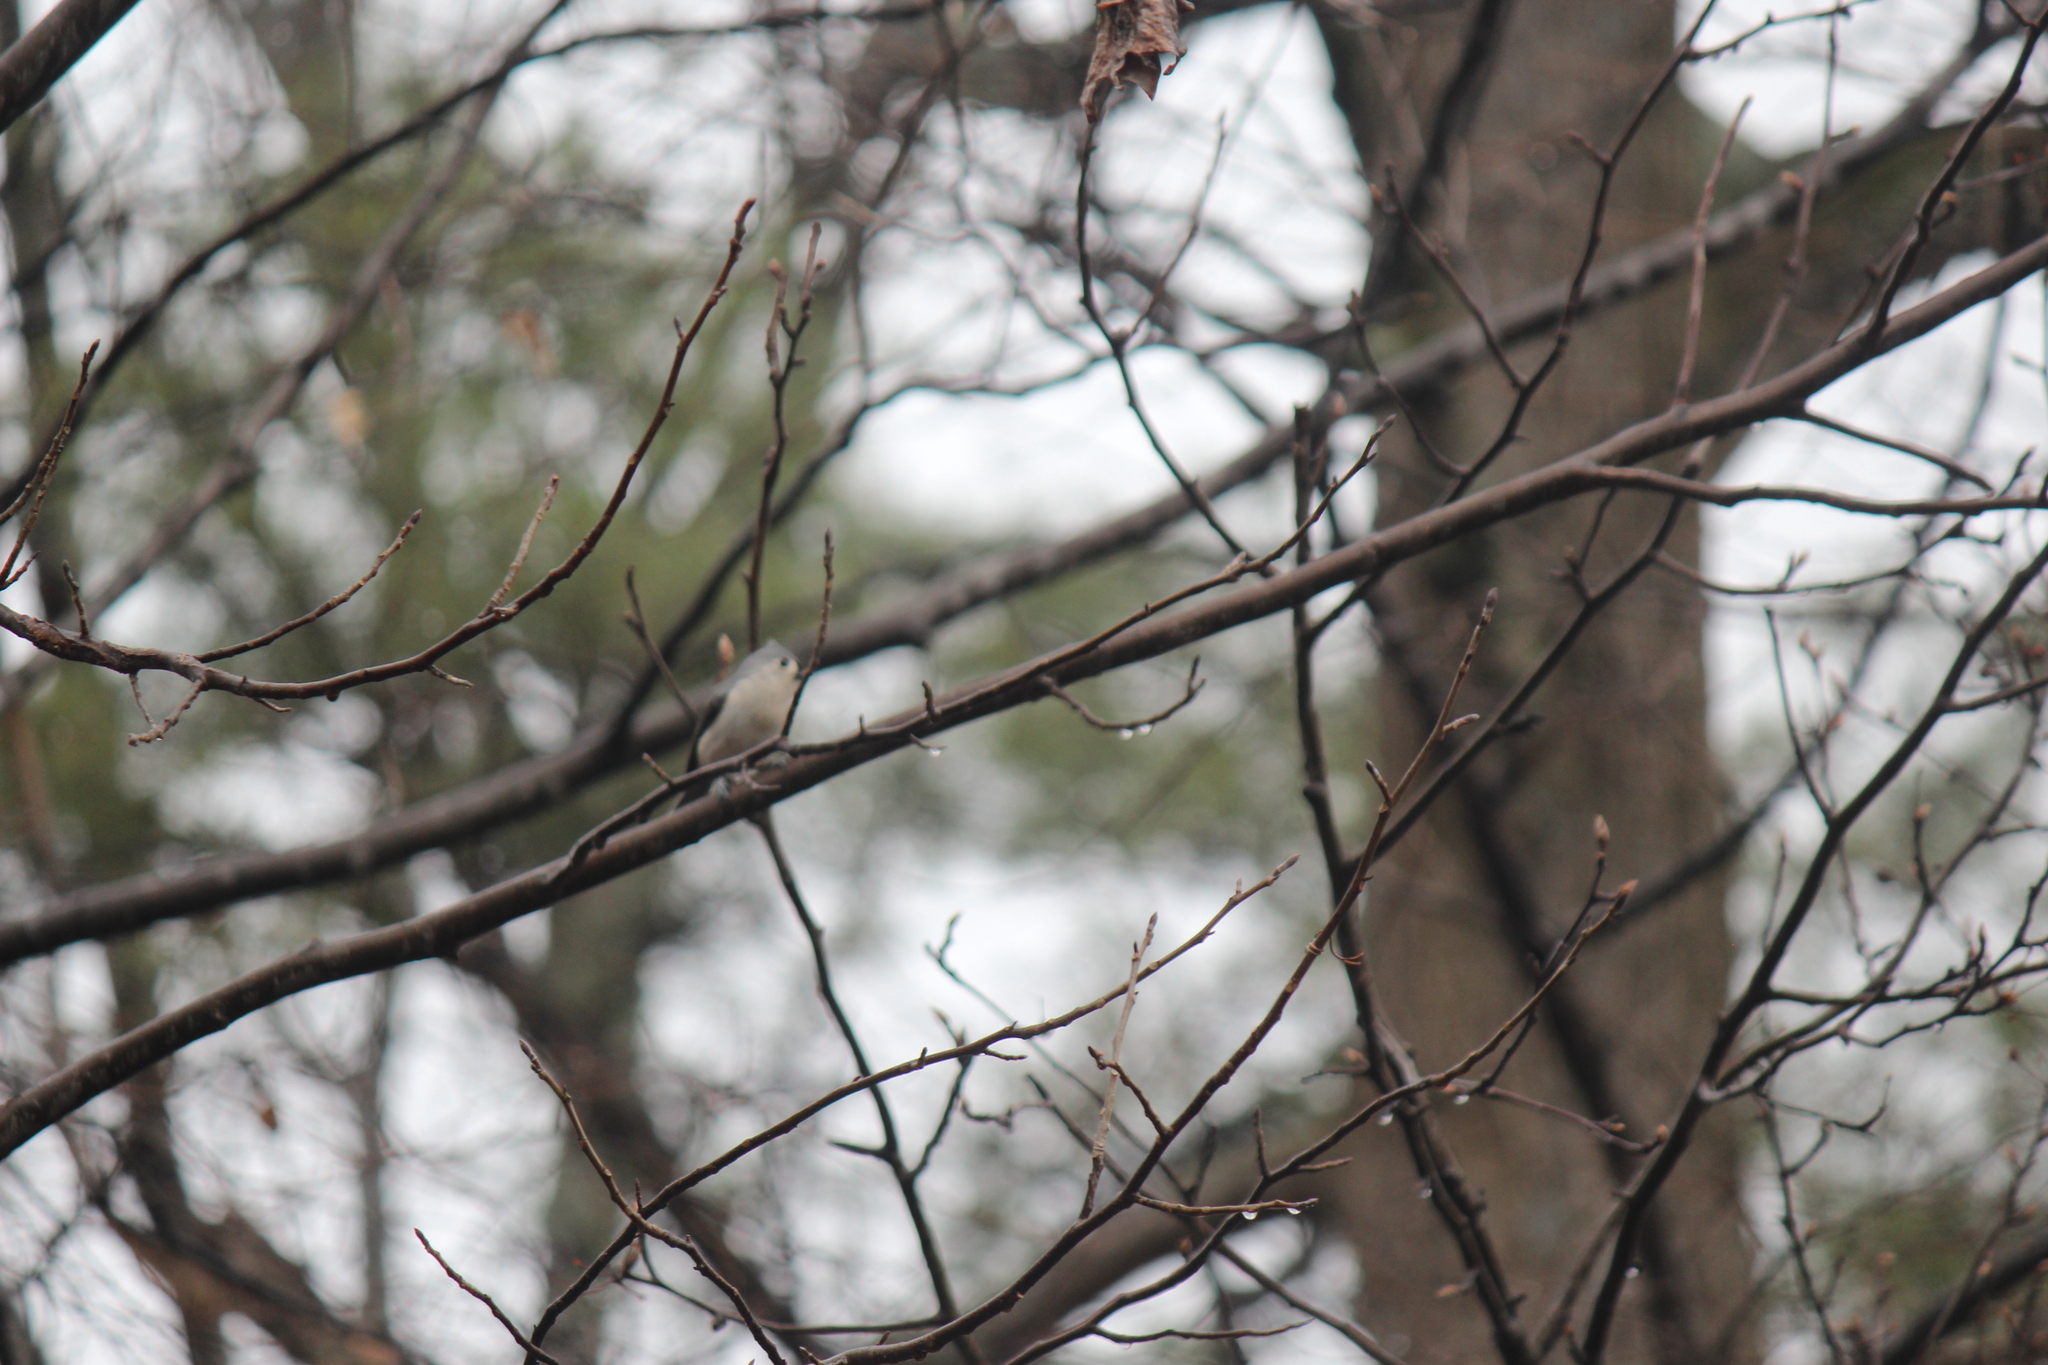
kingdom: Animalia
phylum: Chordata
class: Aves
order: Passeriformes
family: Paridae
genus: Baeolophus
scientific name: Baeolophus bicolor
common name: Tufted titmouse
